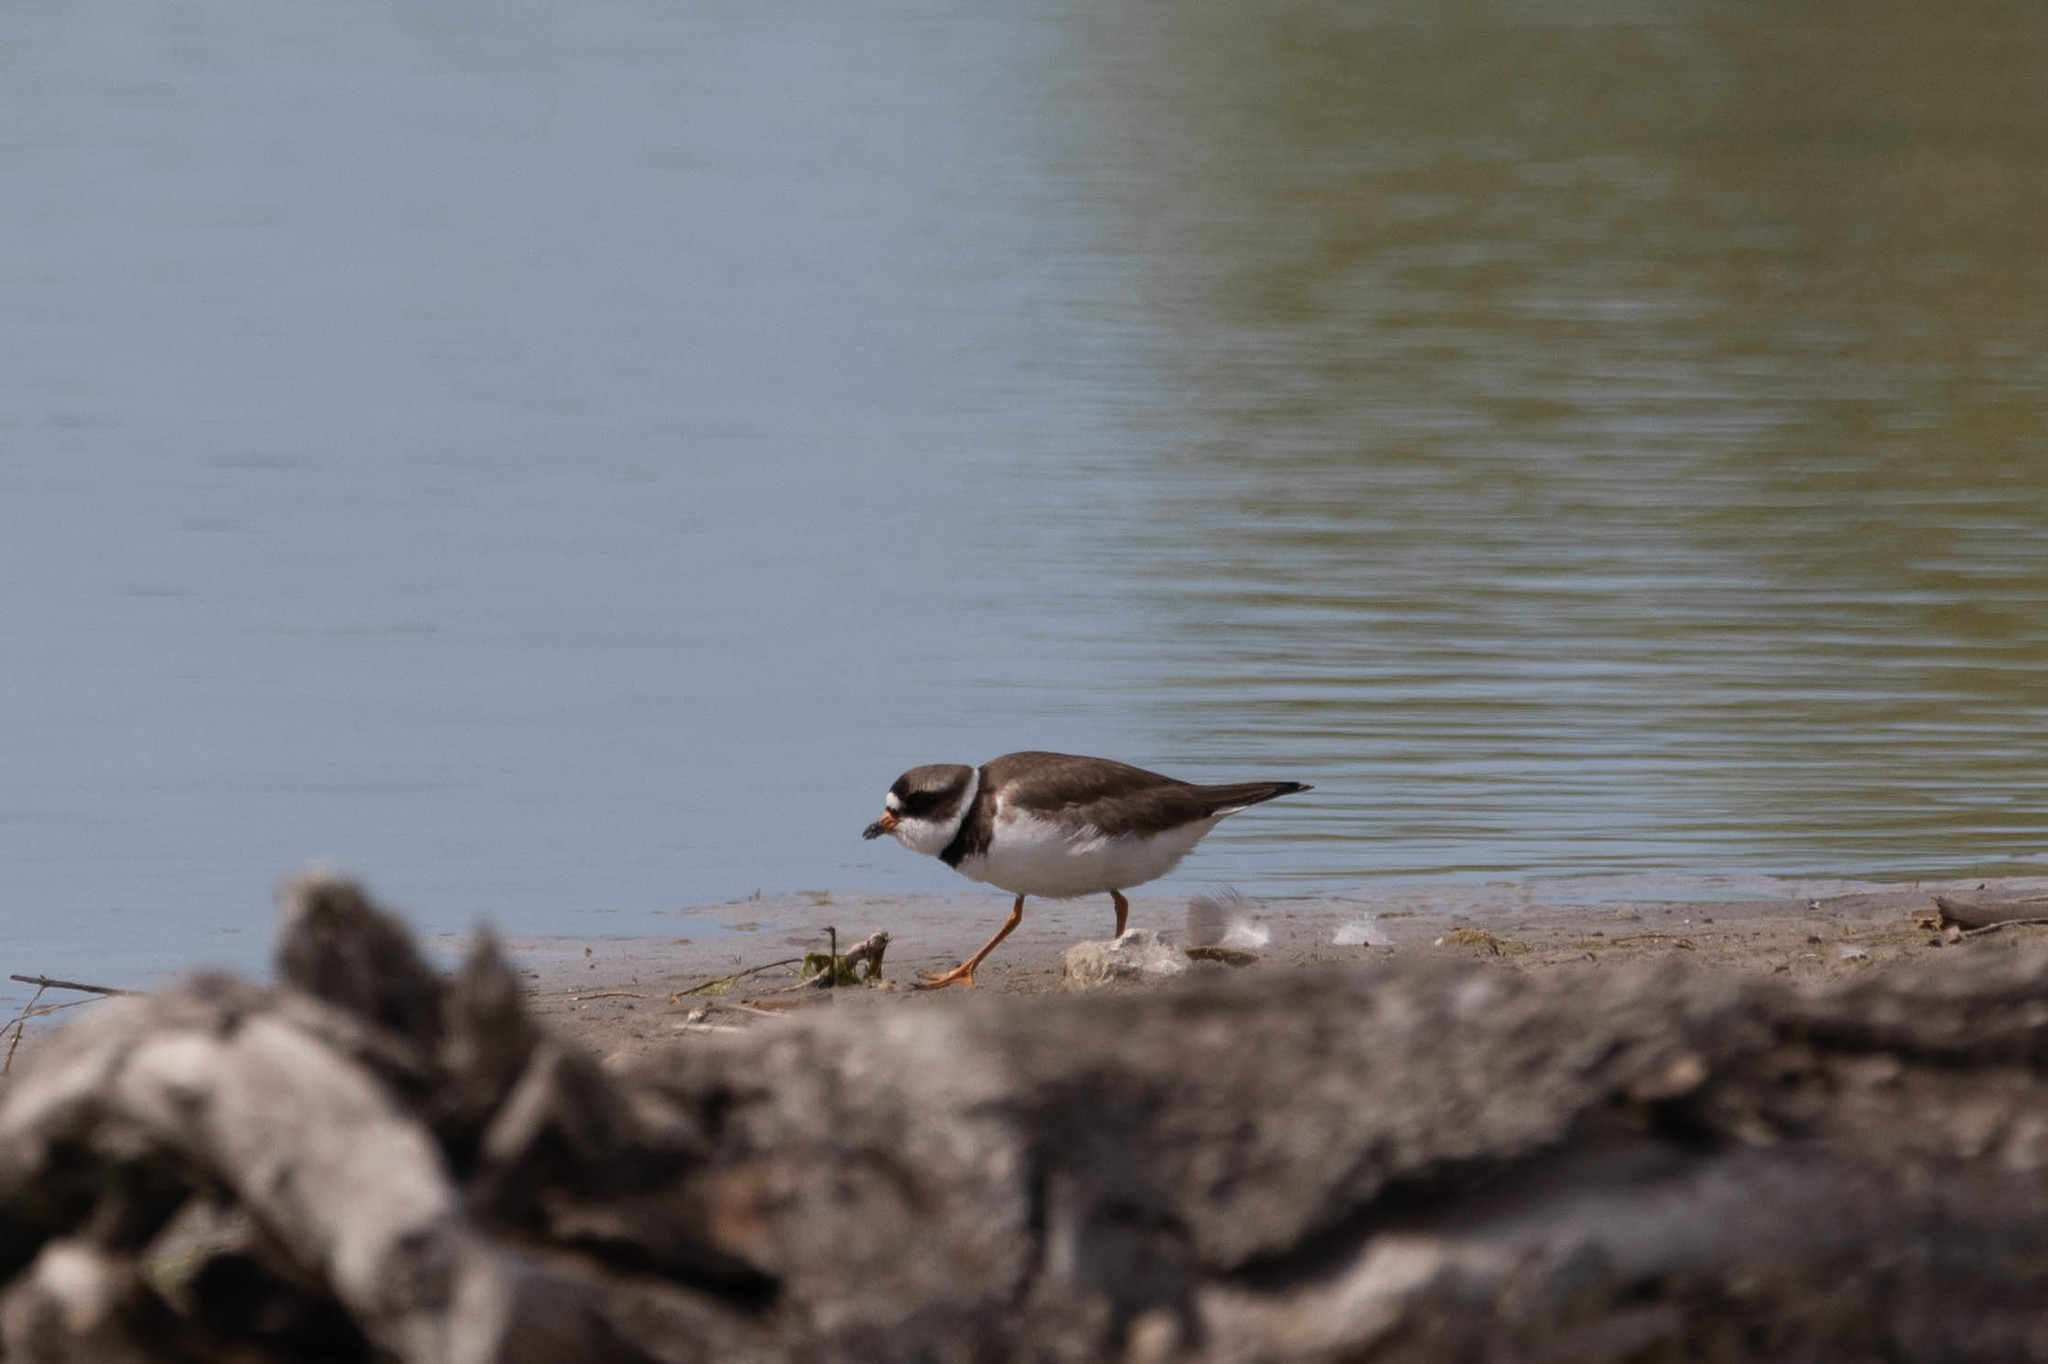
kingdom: Animalia
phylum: Chordata
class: Aves
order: Charadriiformes
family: Charadriidae
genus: Charadrius
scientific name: Charadrius semipalmatus
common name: Semipalmated plover
